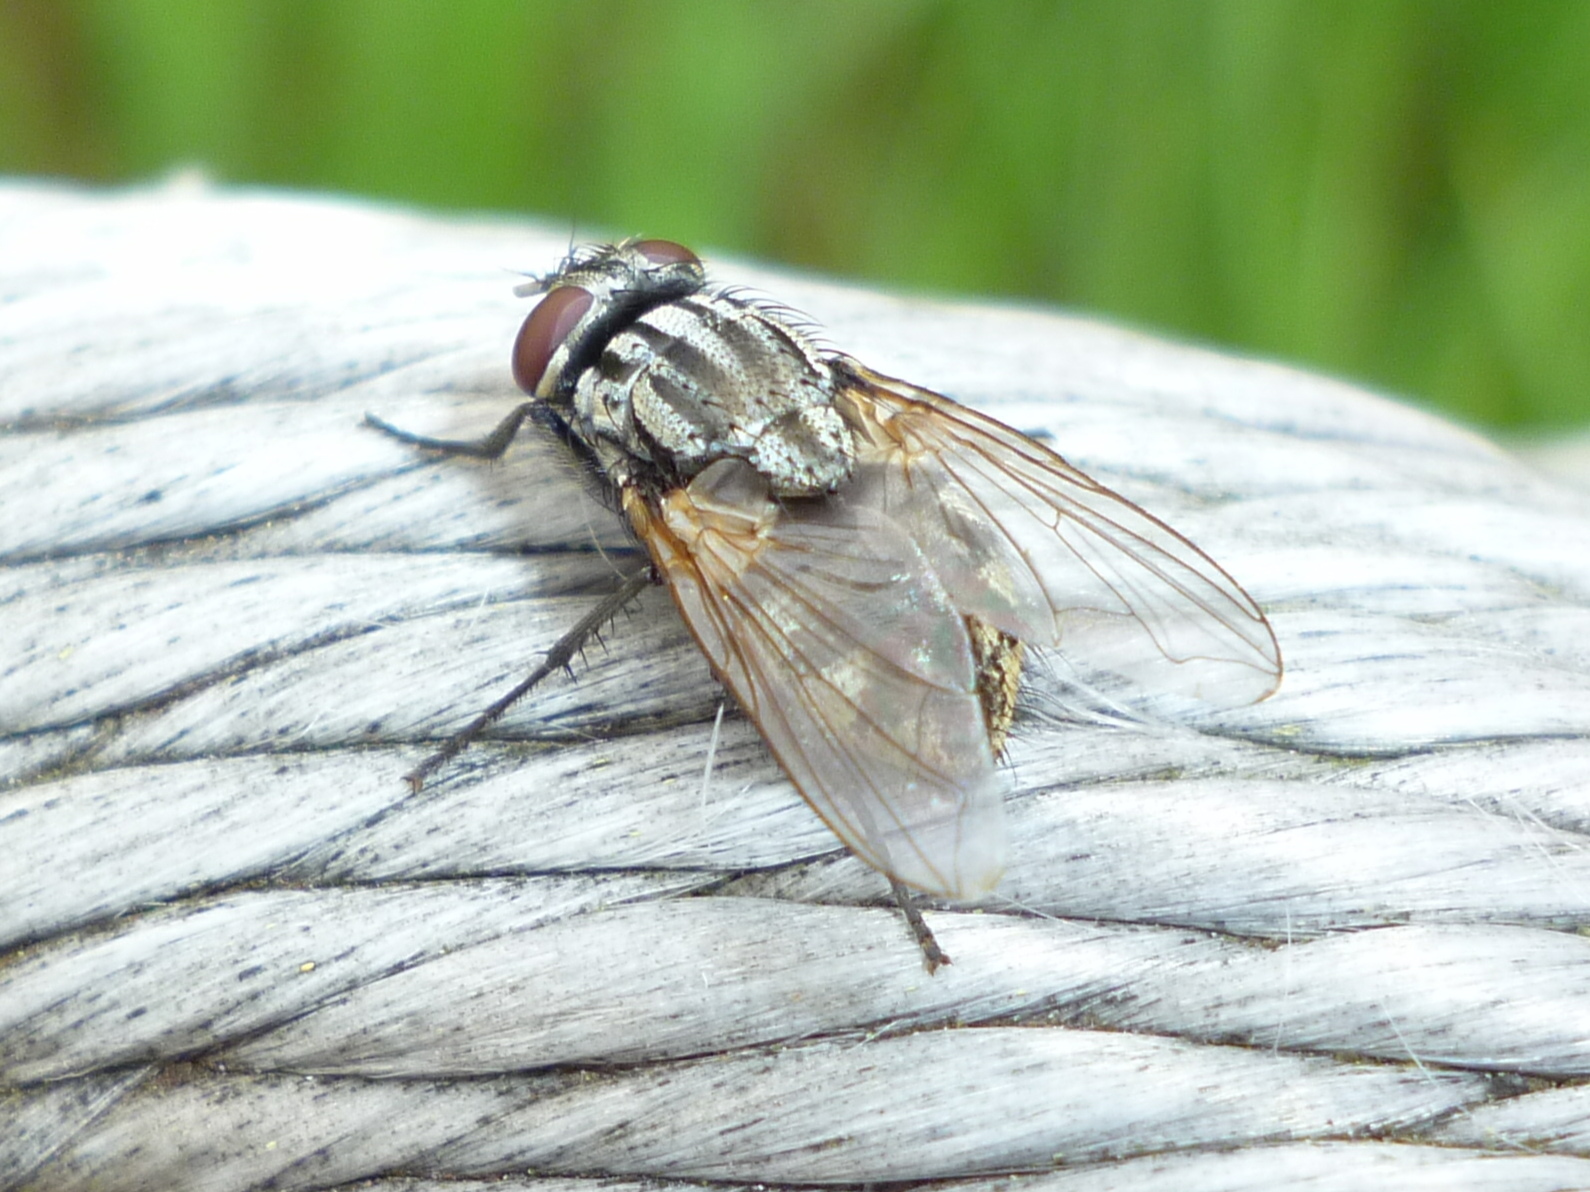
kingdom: Animalia
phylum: Arthropoda
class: Insecta
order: Diptera
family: Muscidae
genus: Musca
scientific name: Musca autumnalis
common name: Face fly
